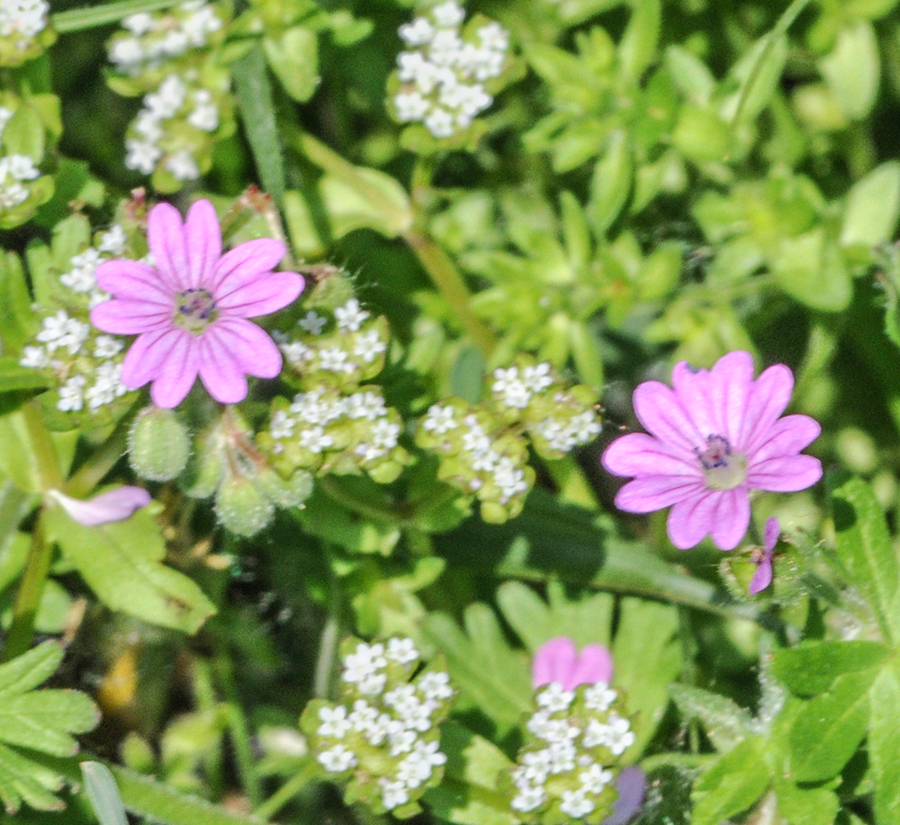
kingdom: Plantae
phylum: Tracheophyta
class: Magnoliopsida
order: Geraniales
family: Geraniaceae
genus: Geranium
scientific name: Geranium pyrenaicum
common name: Hedgerow crane's-bill
